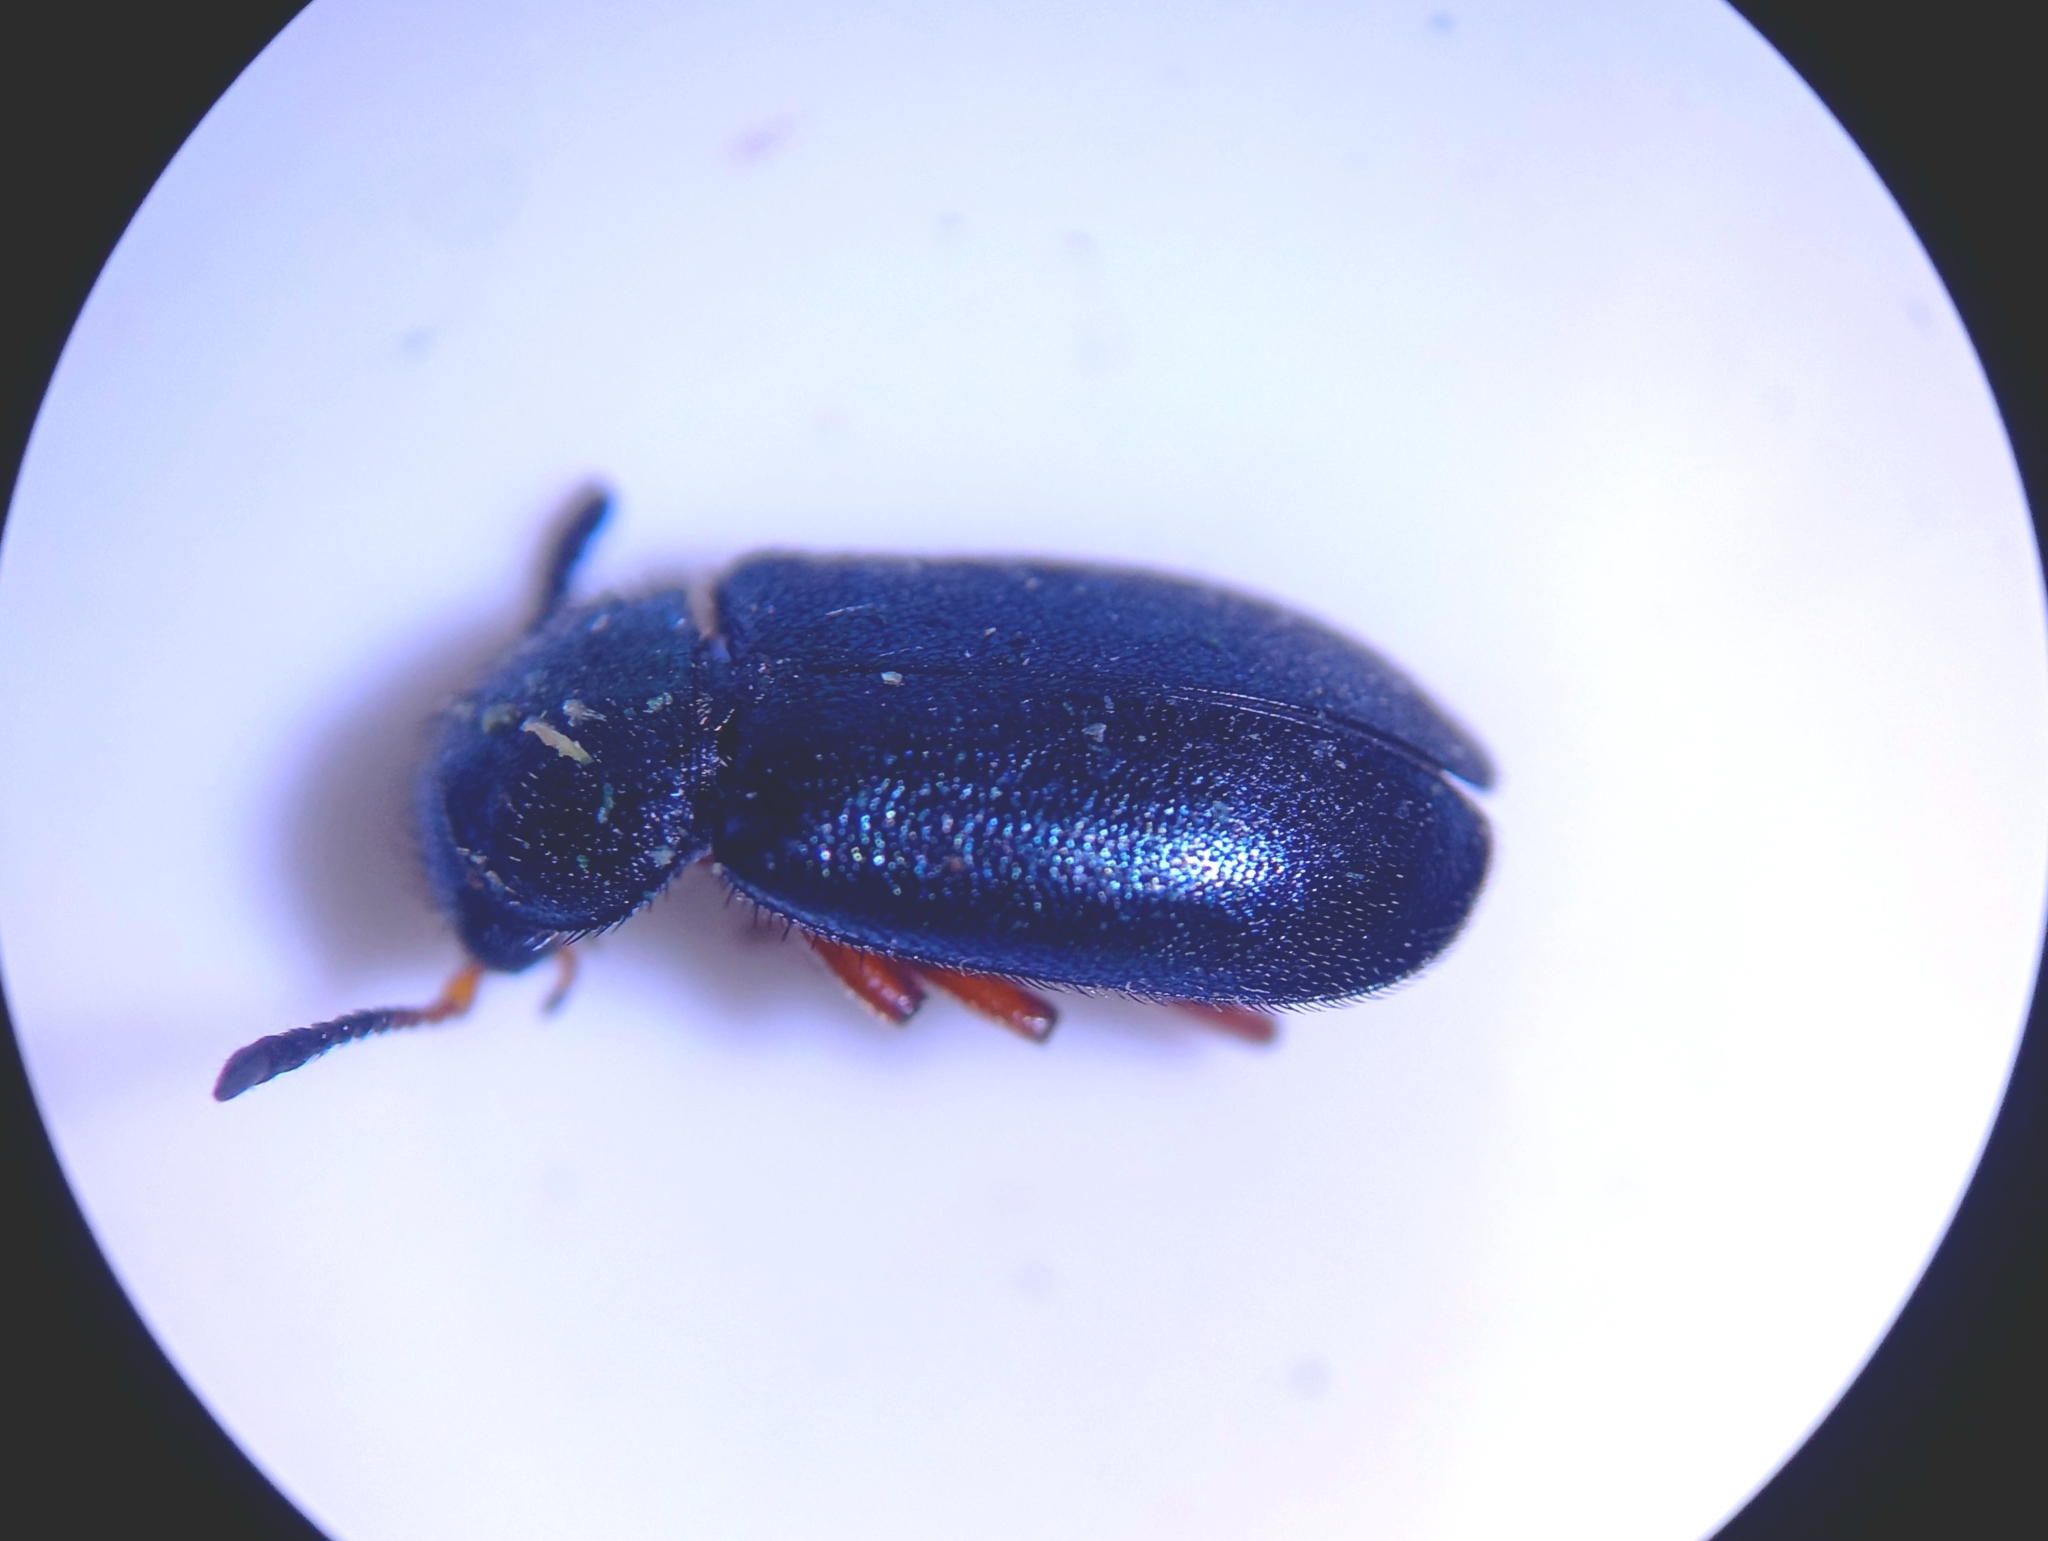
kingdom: Animalia
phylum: Arthropoda
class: Insecta
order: Coleoptera
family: Cleridae
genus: Necrobia
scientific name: Necrobia rufipes
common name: Red-legged ham beetle
